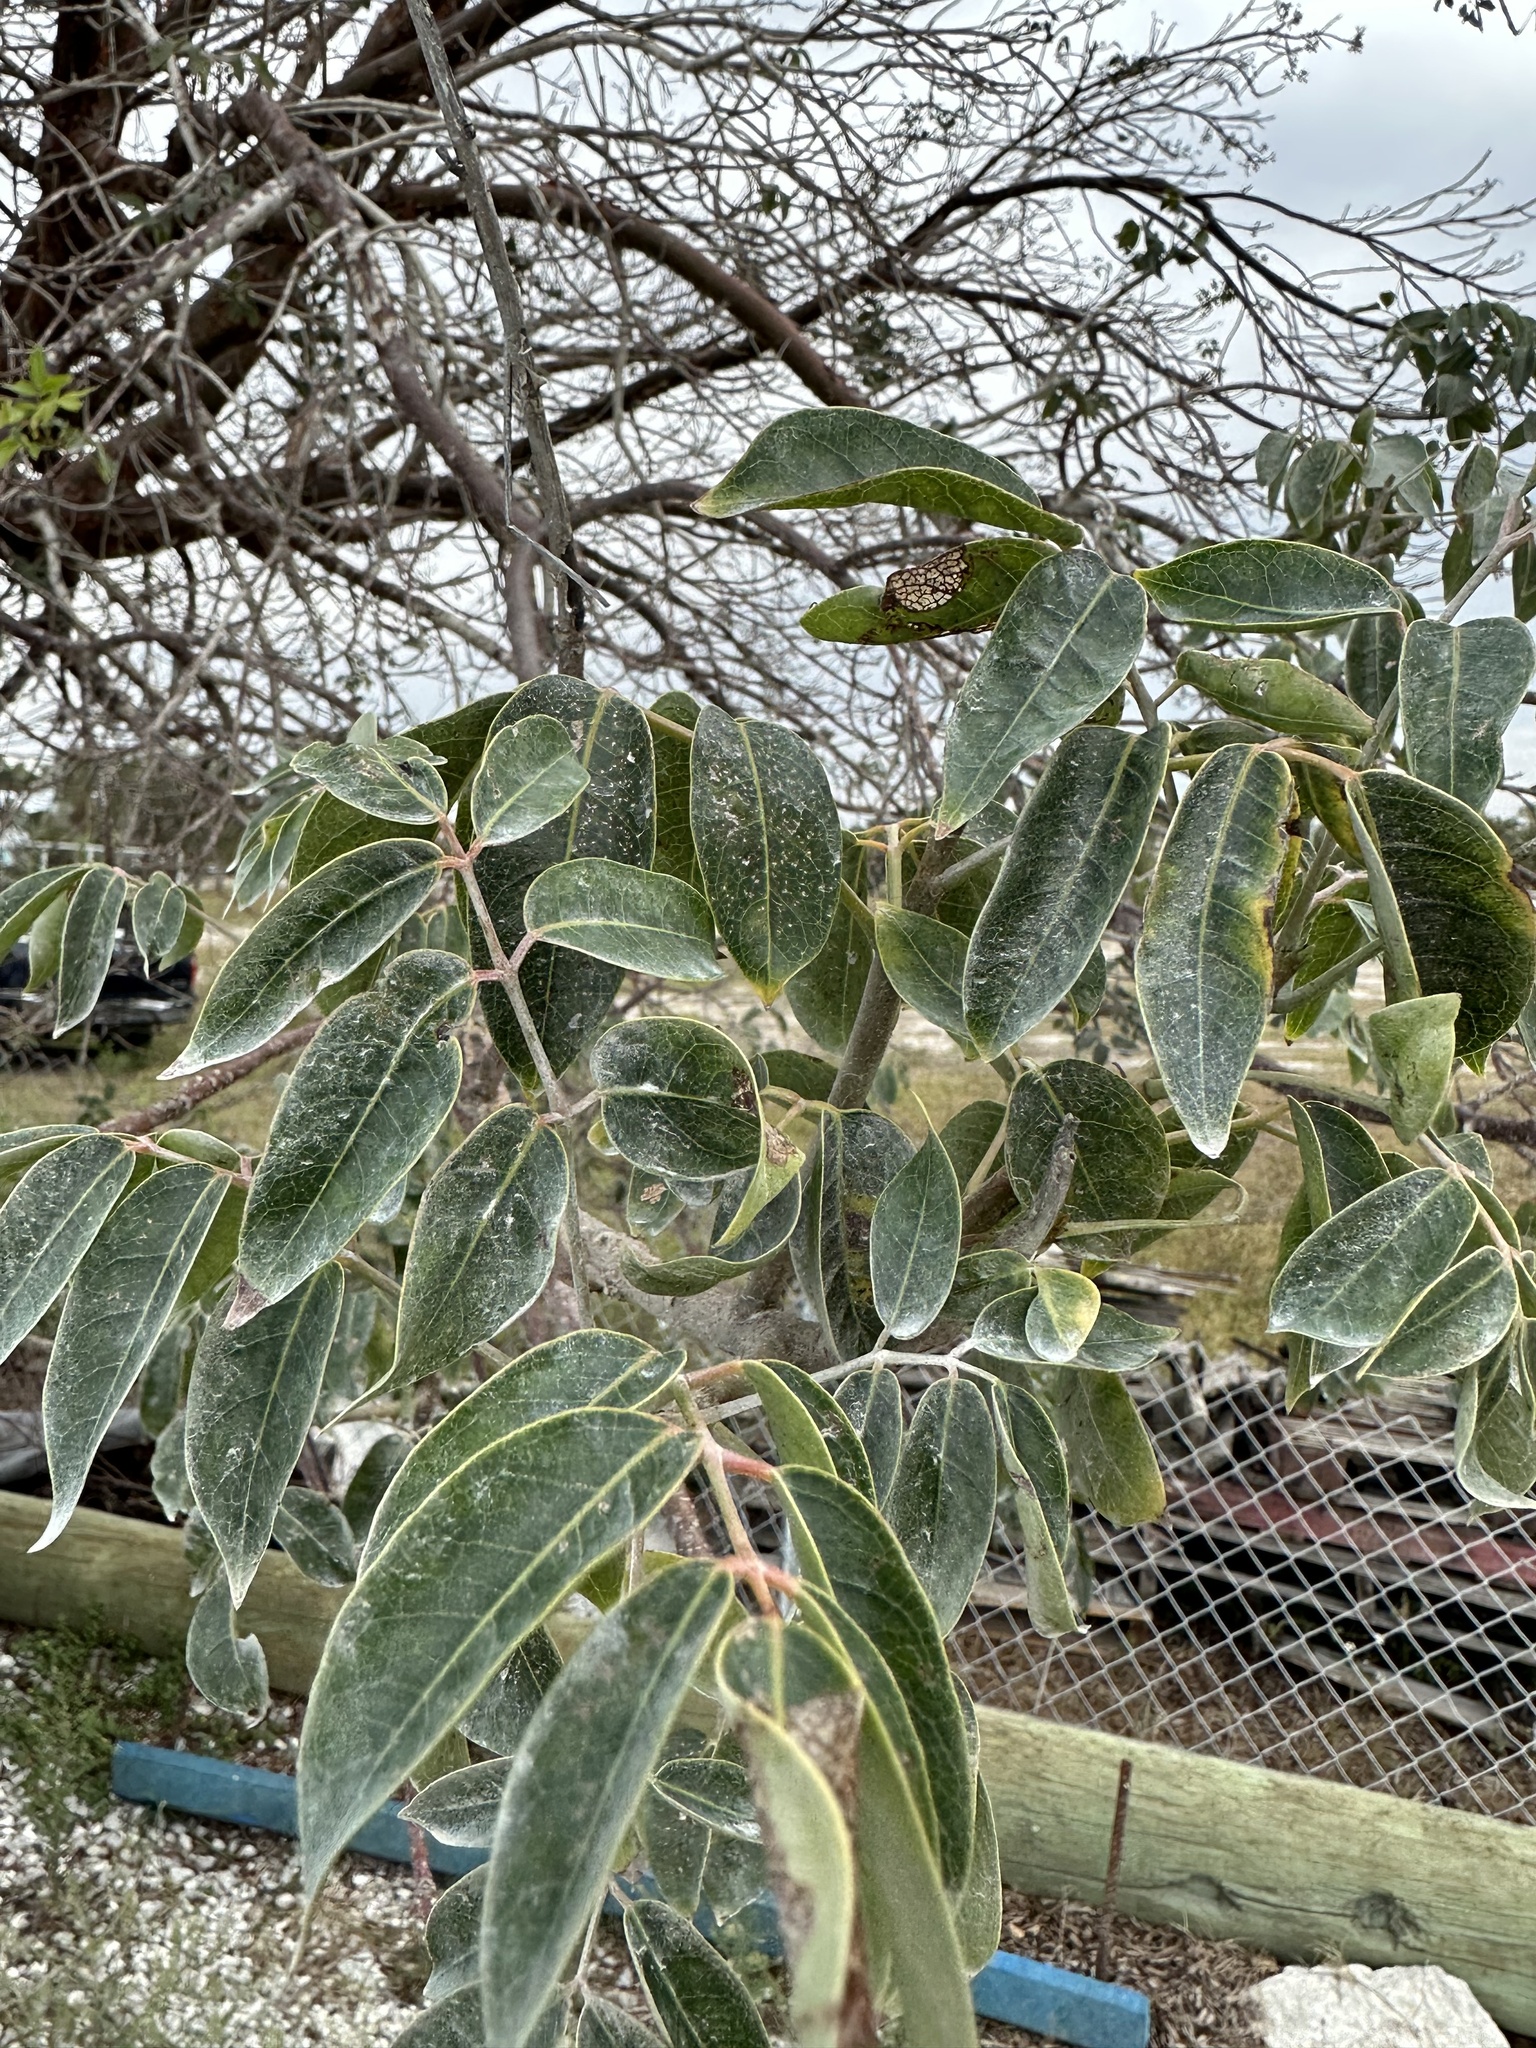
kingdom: Plantae
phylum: Tracheophyta
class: Magnoliopsida
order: Sapindales
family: Burseraceae
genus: Bursera
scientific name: Bursera simaruba
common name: Turpentine tree
